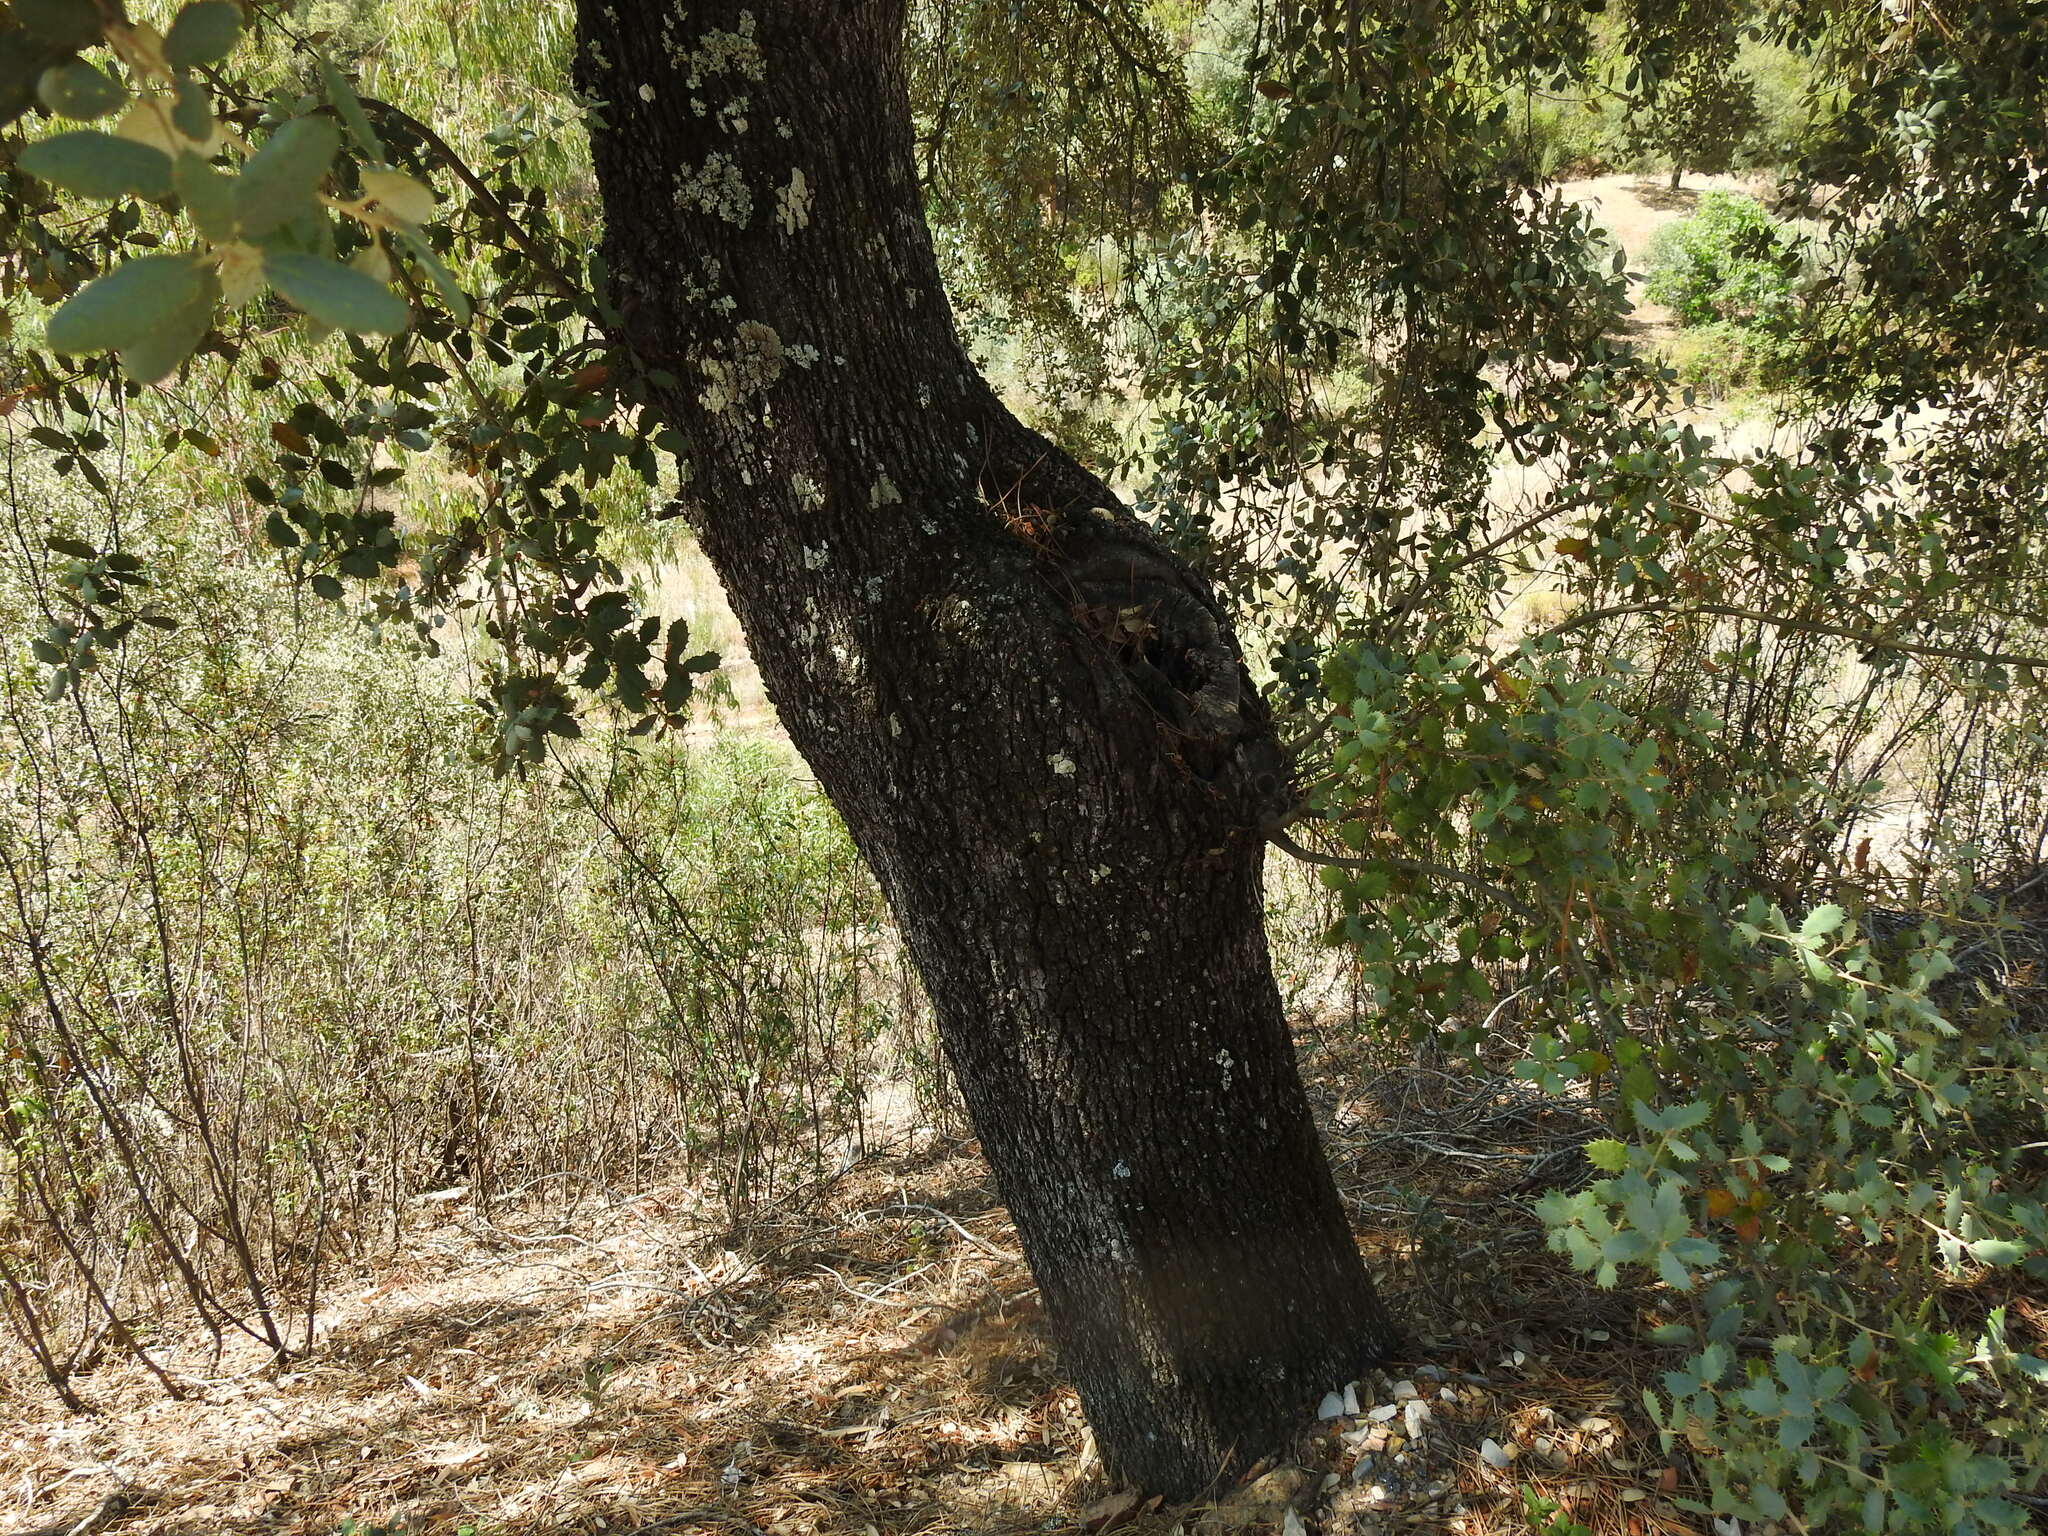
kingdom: Plantae
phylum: Tracheophyta
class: Magnoliopsida
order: Fagales
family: Fagaceae
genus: Quercus
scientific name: Quercus rotundifolia
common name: Holm oak
